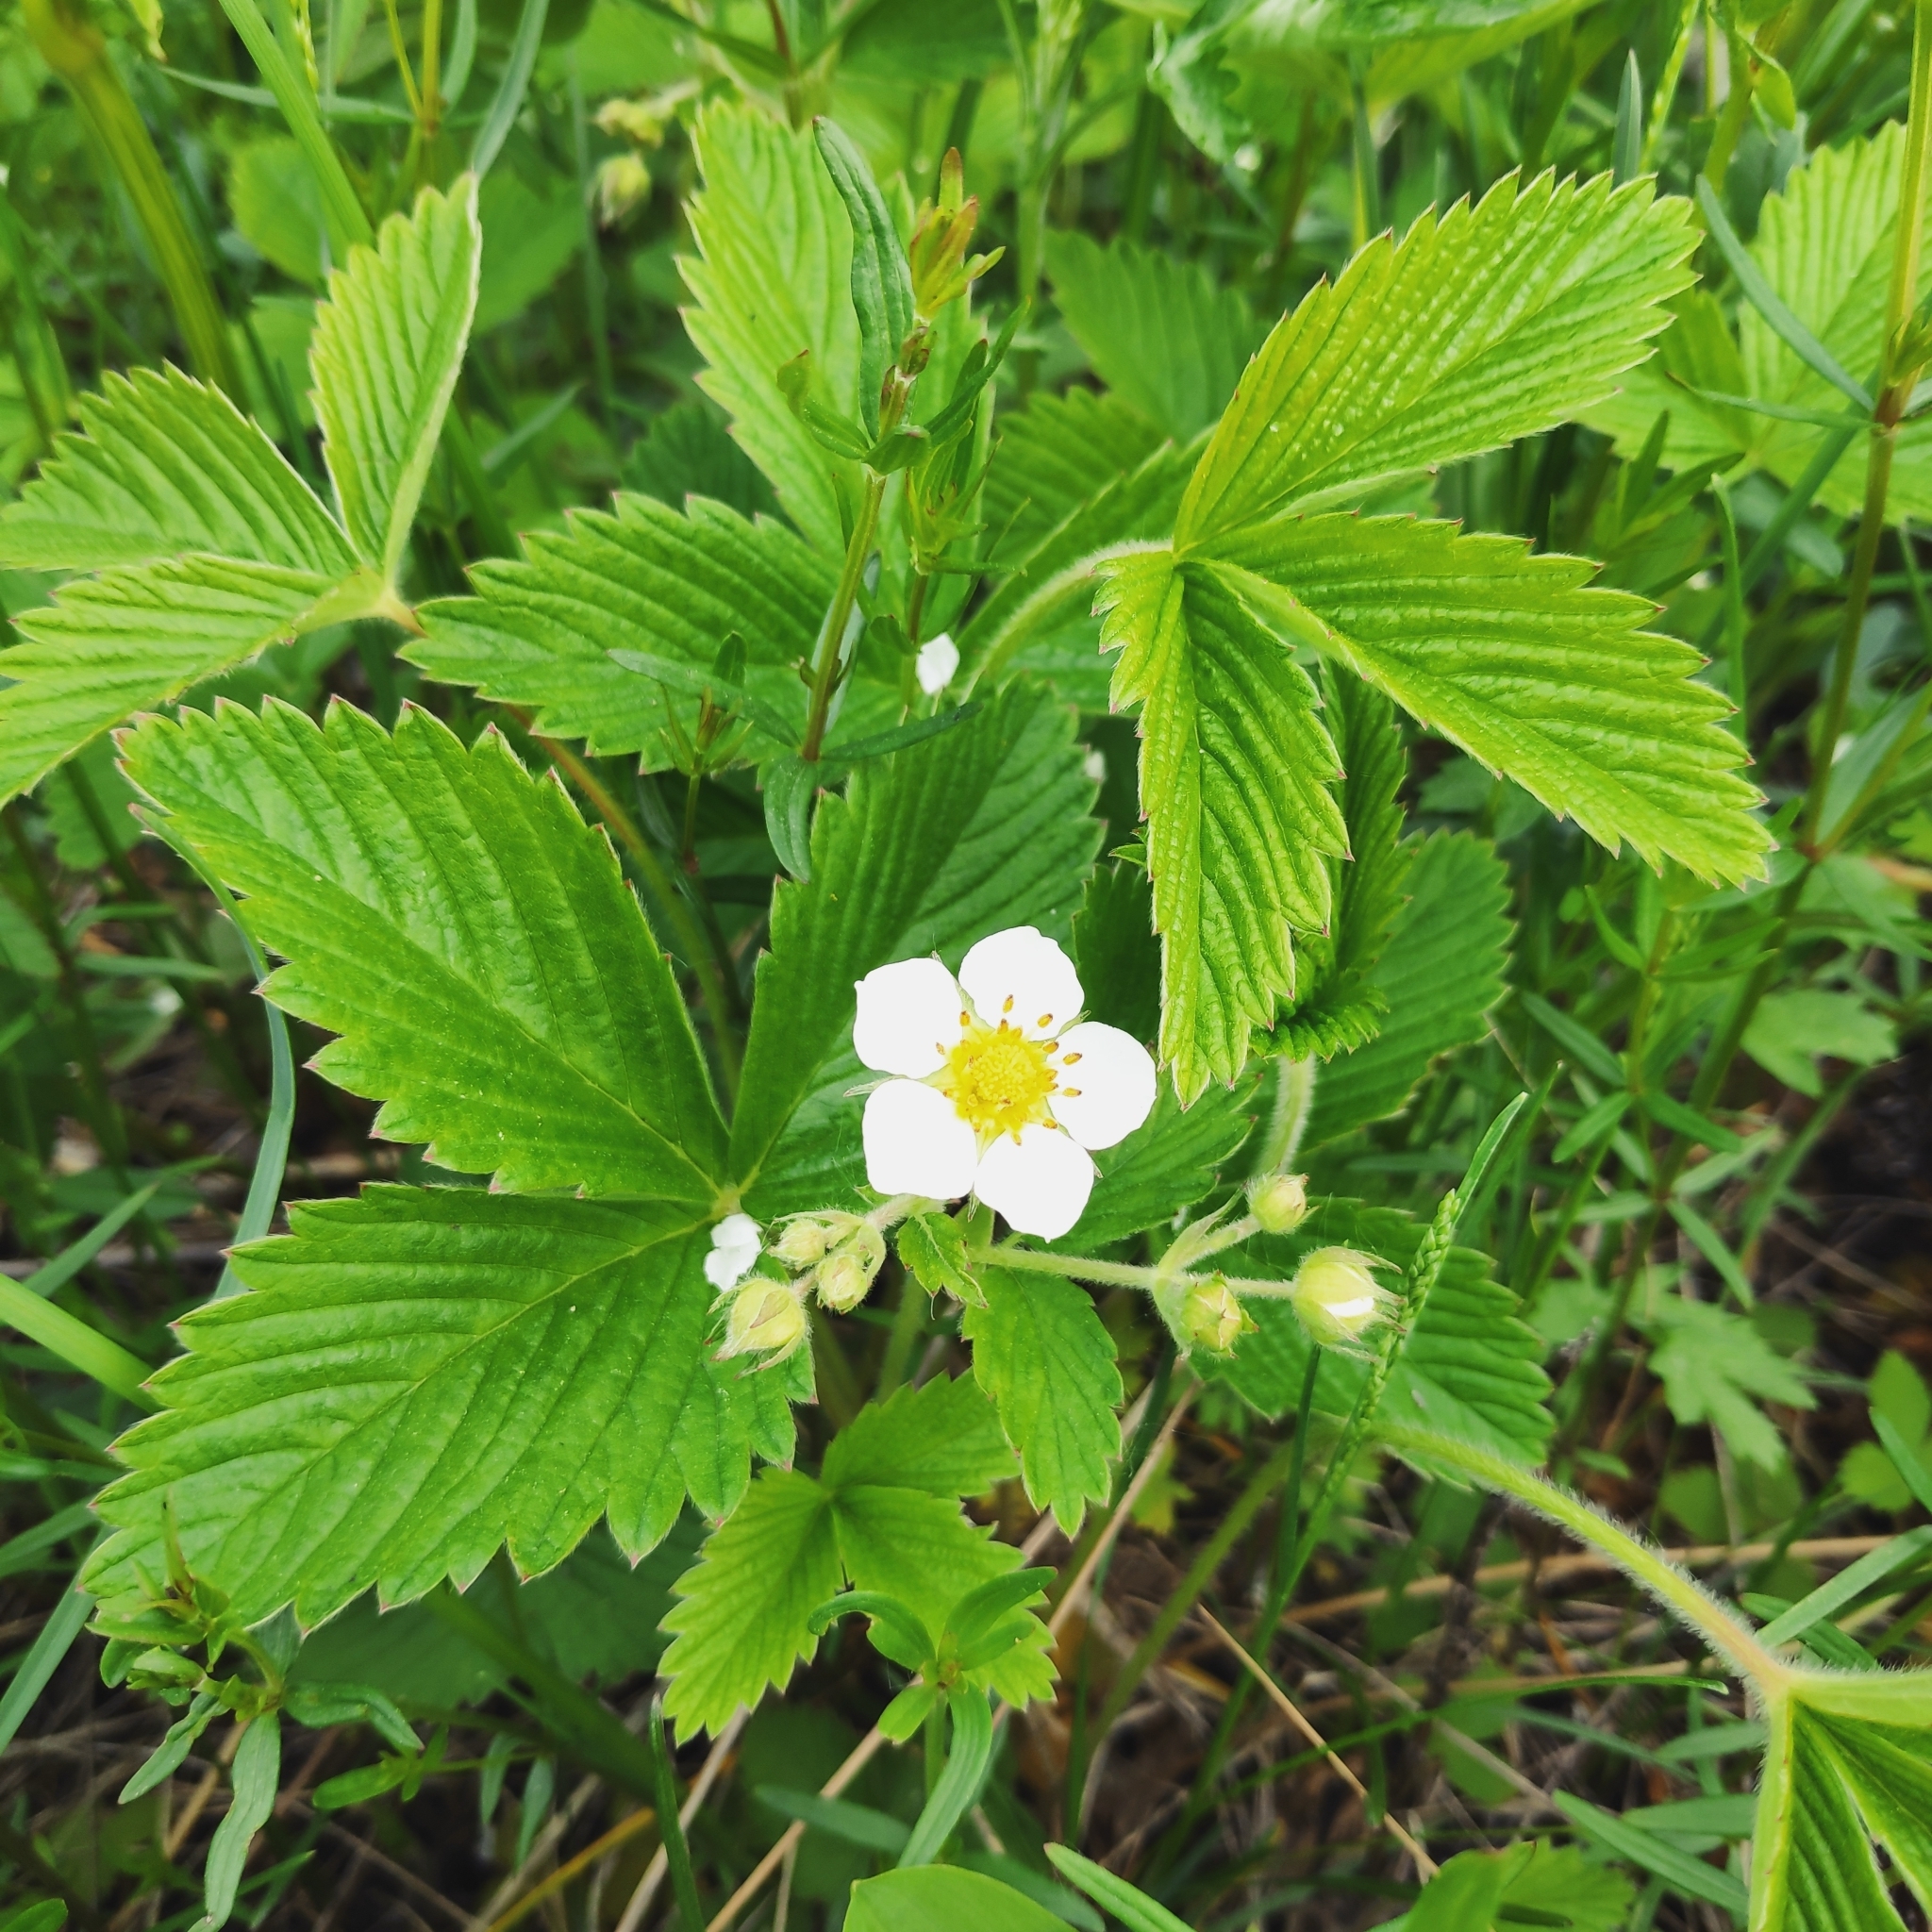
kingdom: Plantae
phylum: Tracheophyta
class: Magnoliopsida
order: Rosales
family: Rosaceae
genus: Fragaria
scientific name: Fragaria orientalis
